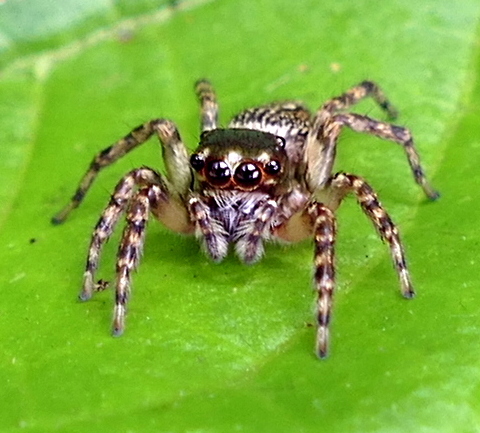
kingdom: Animalia
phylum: Arthropoda
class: Arachnida
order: Araneae
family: Salticidae
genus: Leptofreya
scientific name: Leptofreya ambigua
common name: Jumping spider
